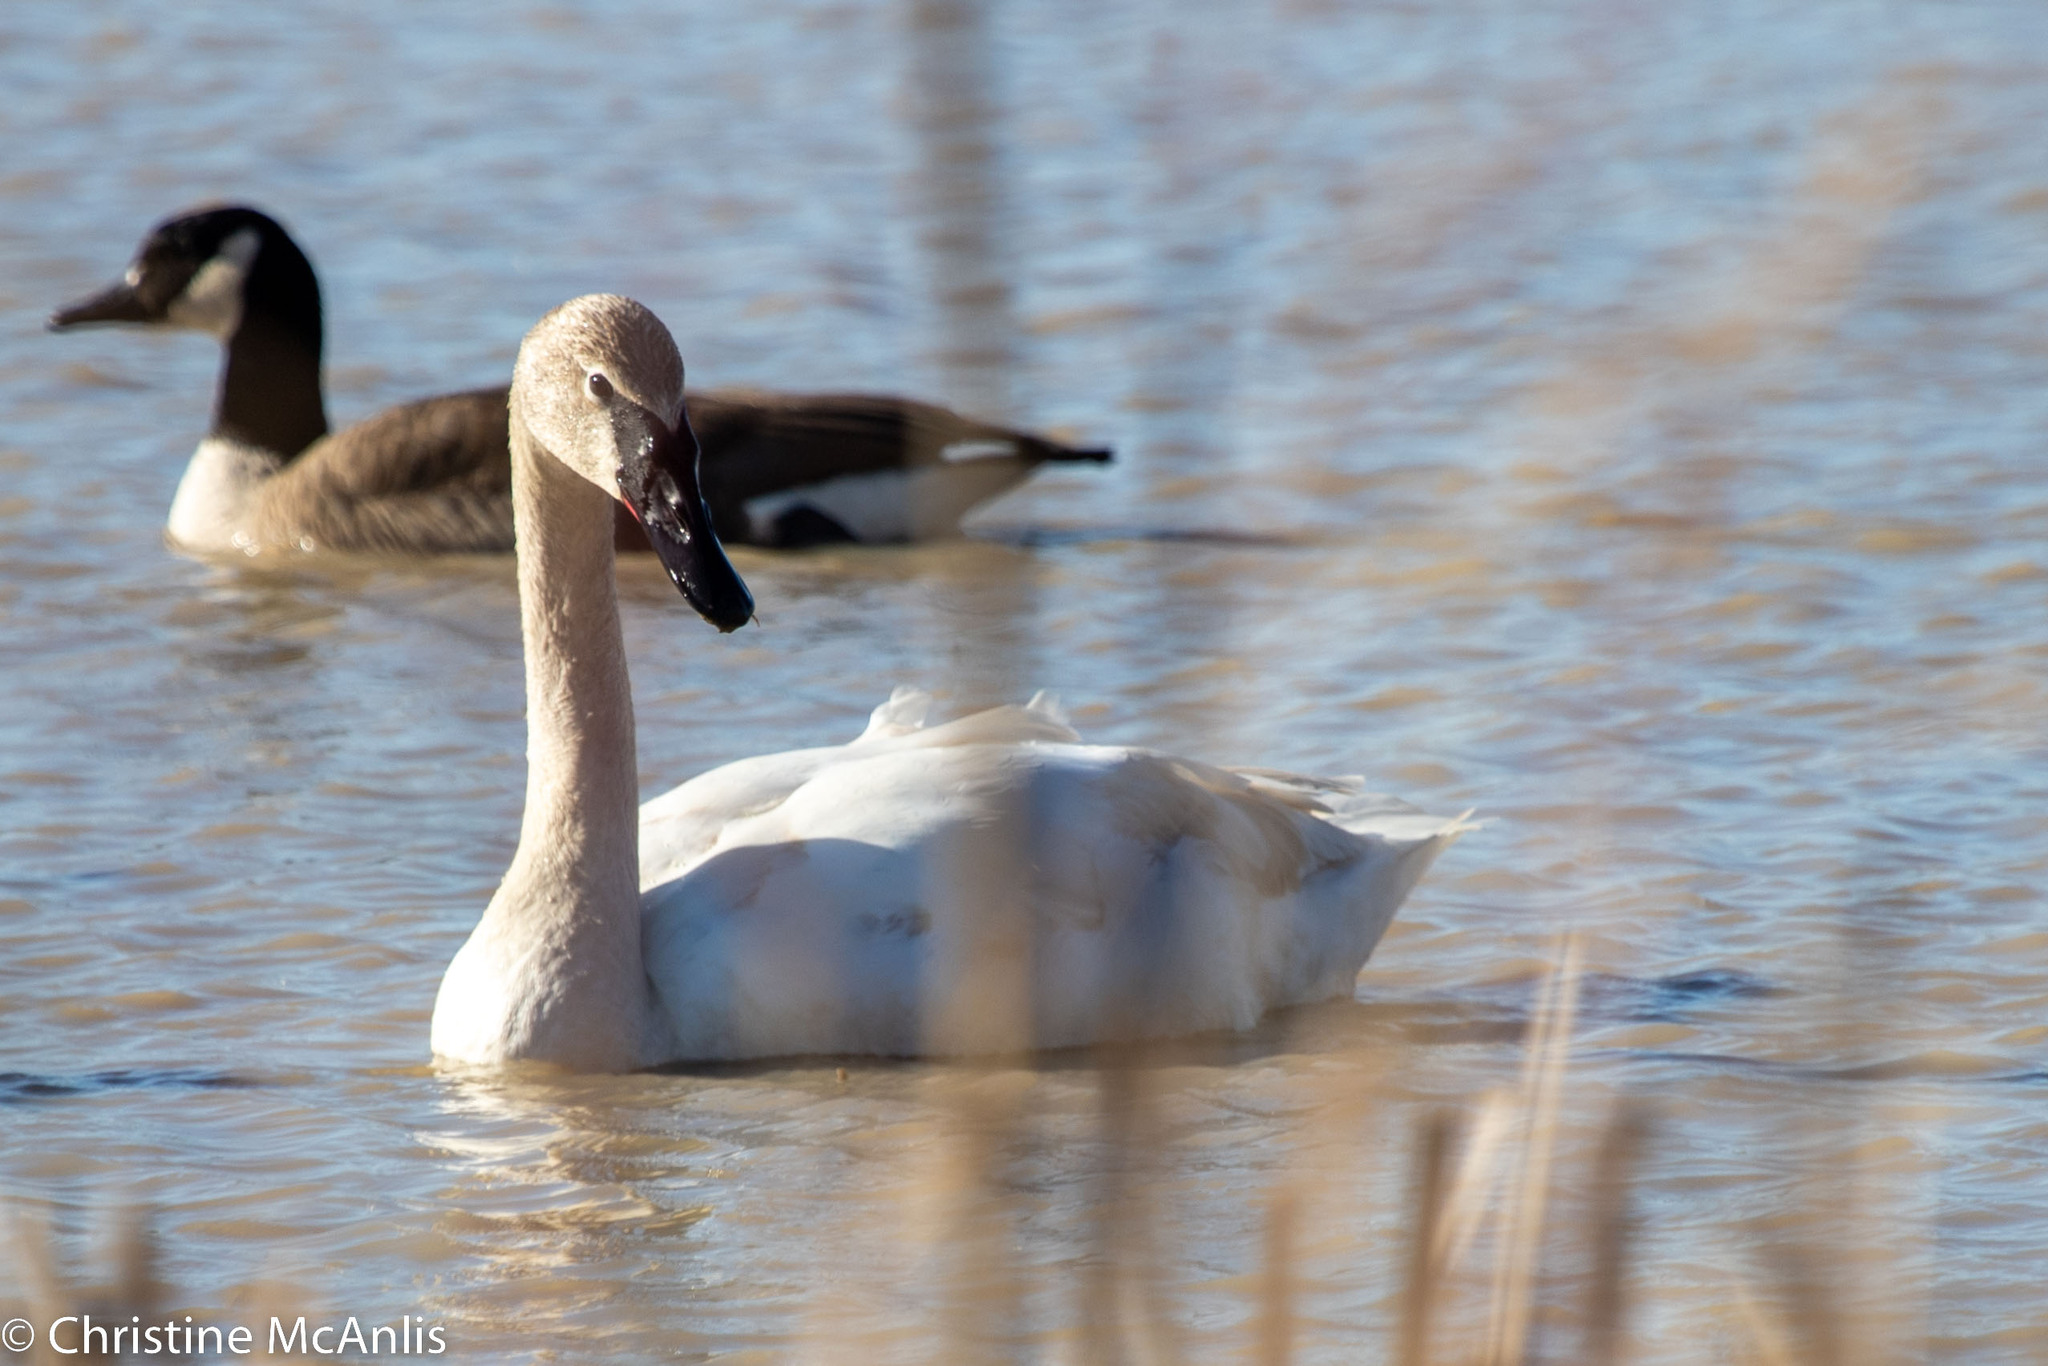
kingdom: Animalia
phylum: Chordata
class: Aves
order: Anseriformes
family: Anatidae
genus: Cygnus
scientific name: Cygnus buccinator
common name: Trumpeter swan
